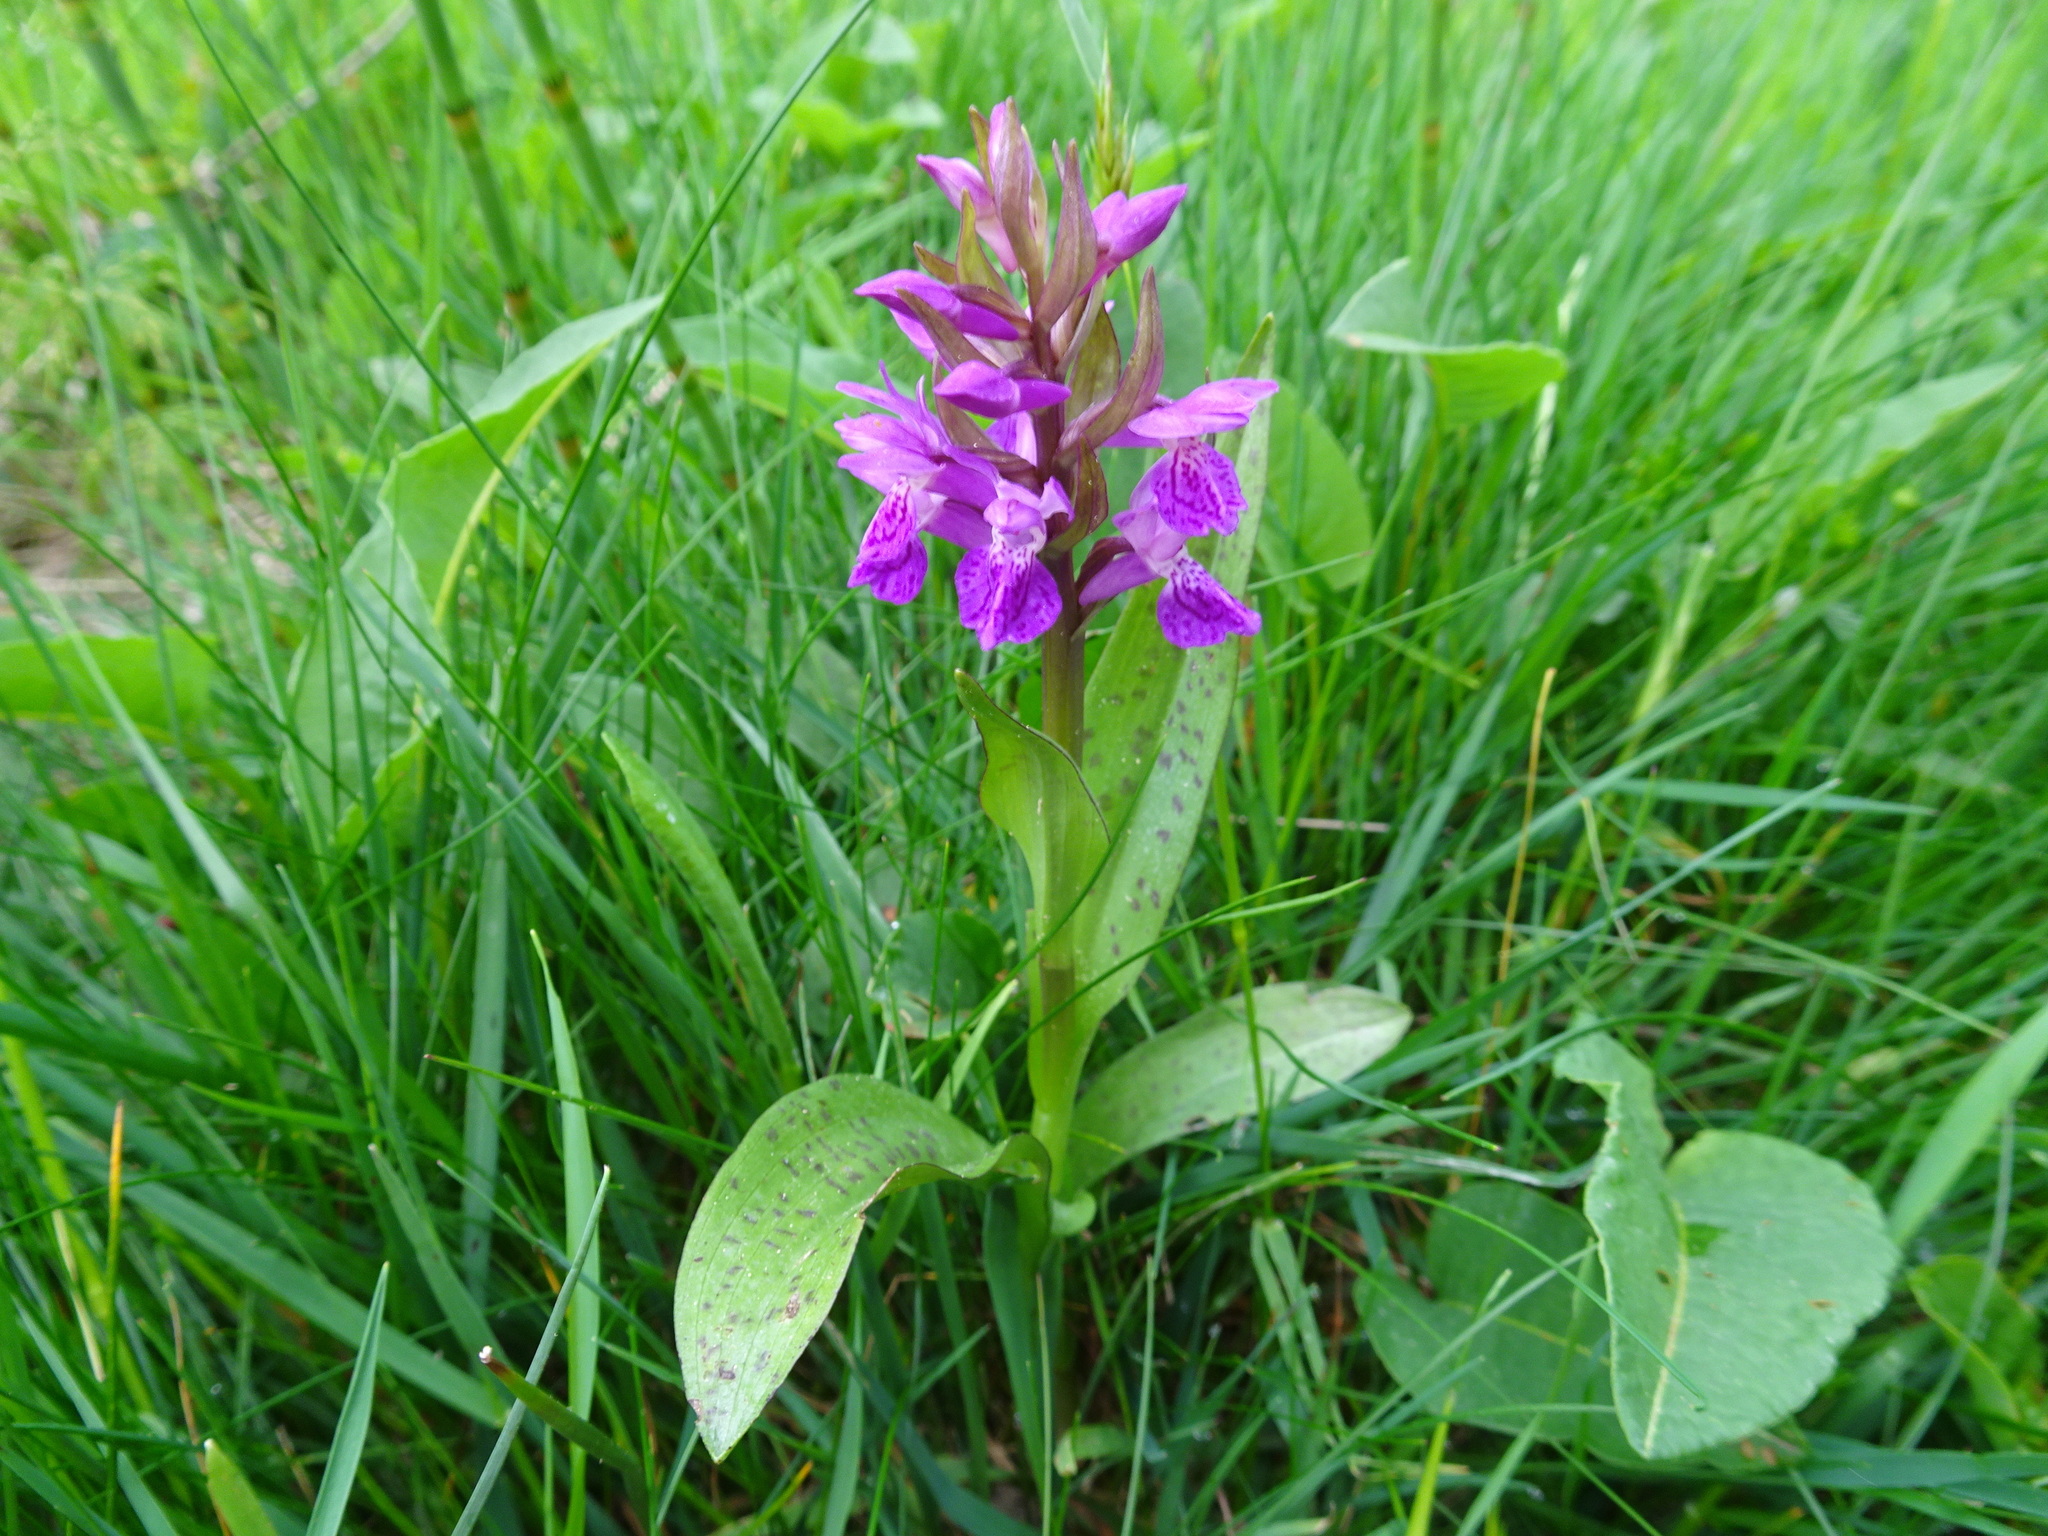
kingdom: Plantae
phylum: Tracheophyta
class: Liliopsida
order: Asparagales
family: Orchidaceae
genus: Dactylorhiza
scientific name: Dactylorhiza majalis
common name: Marsh orchid
